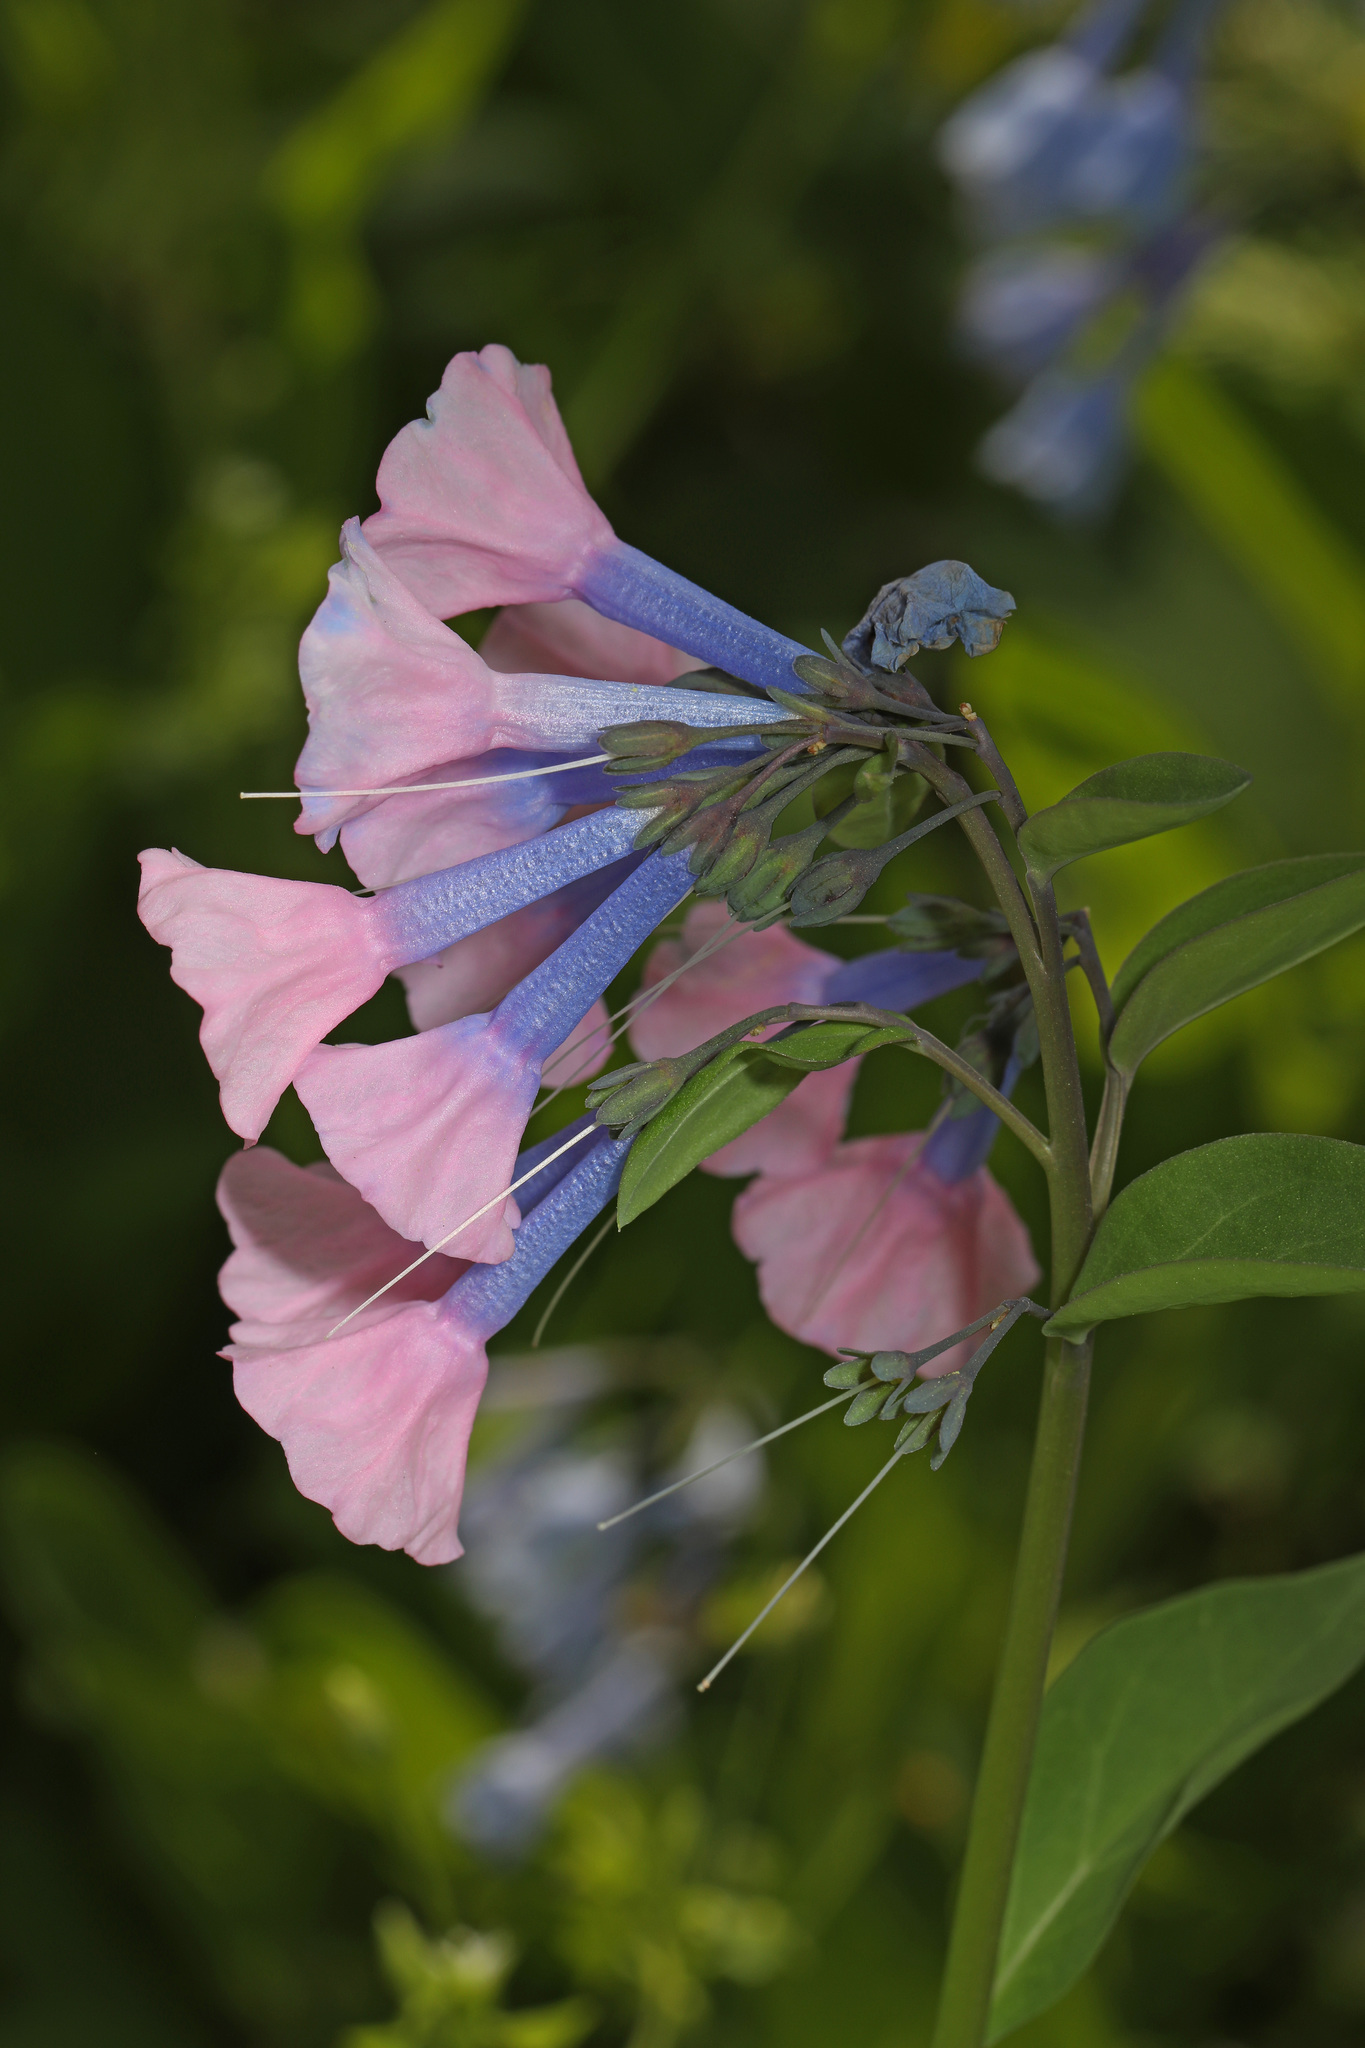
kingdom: Plantae
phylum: Tracheophyta
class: Magnoliopsida
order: Boraginales
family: Boraginaceae
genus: Mertensia
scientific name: Mertensia virginica
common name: Virginia bluebells
